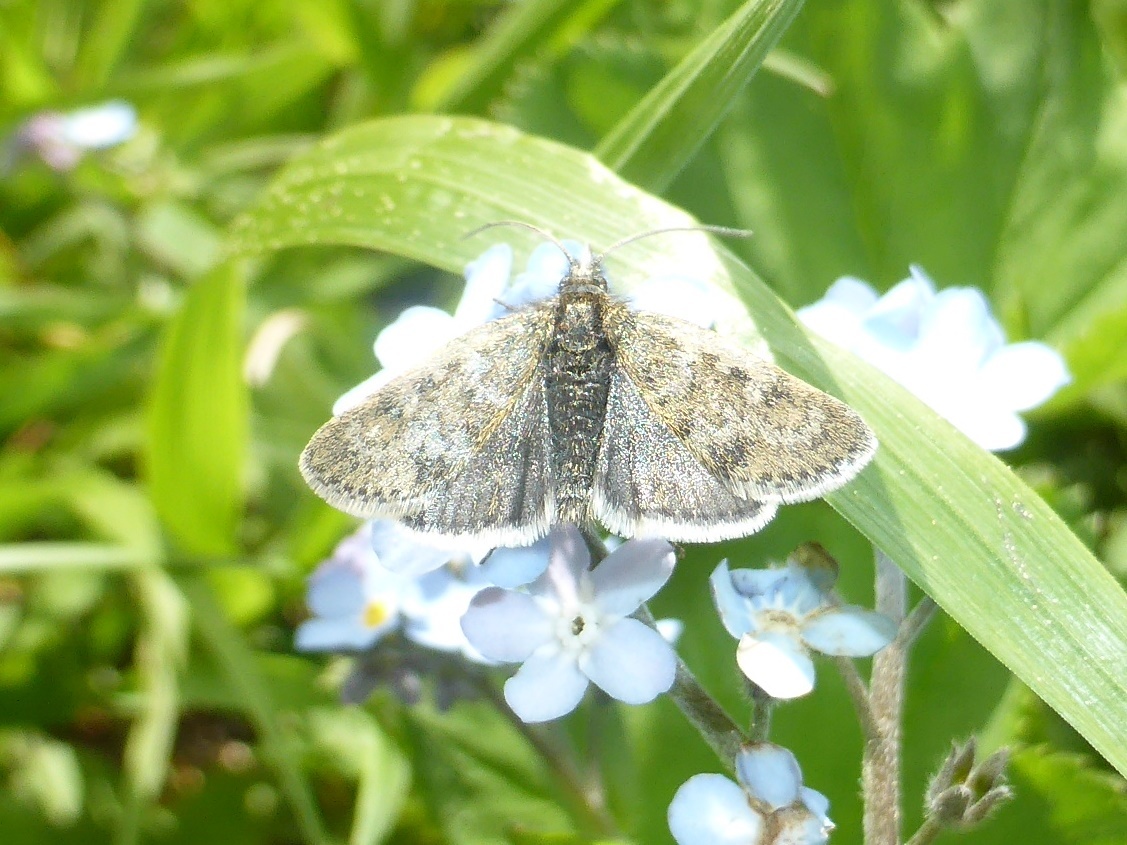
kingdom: Animalia
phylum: Arthropoda
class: Insecta
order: Lepidoptera
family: Crambidae
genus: Metaxmeste
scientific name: Metaxmeste phrygialis
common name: Black mountain pearl
